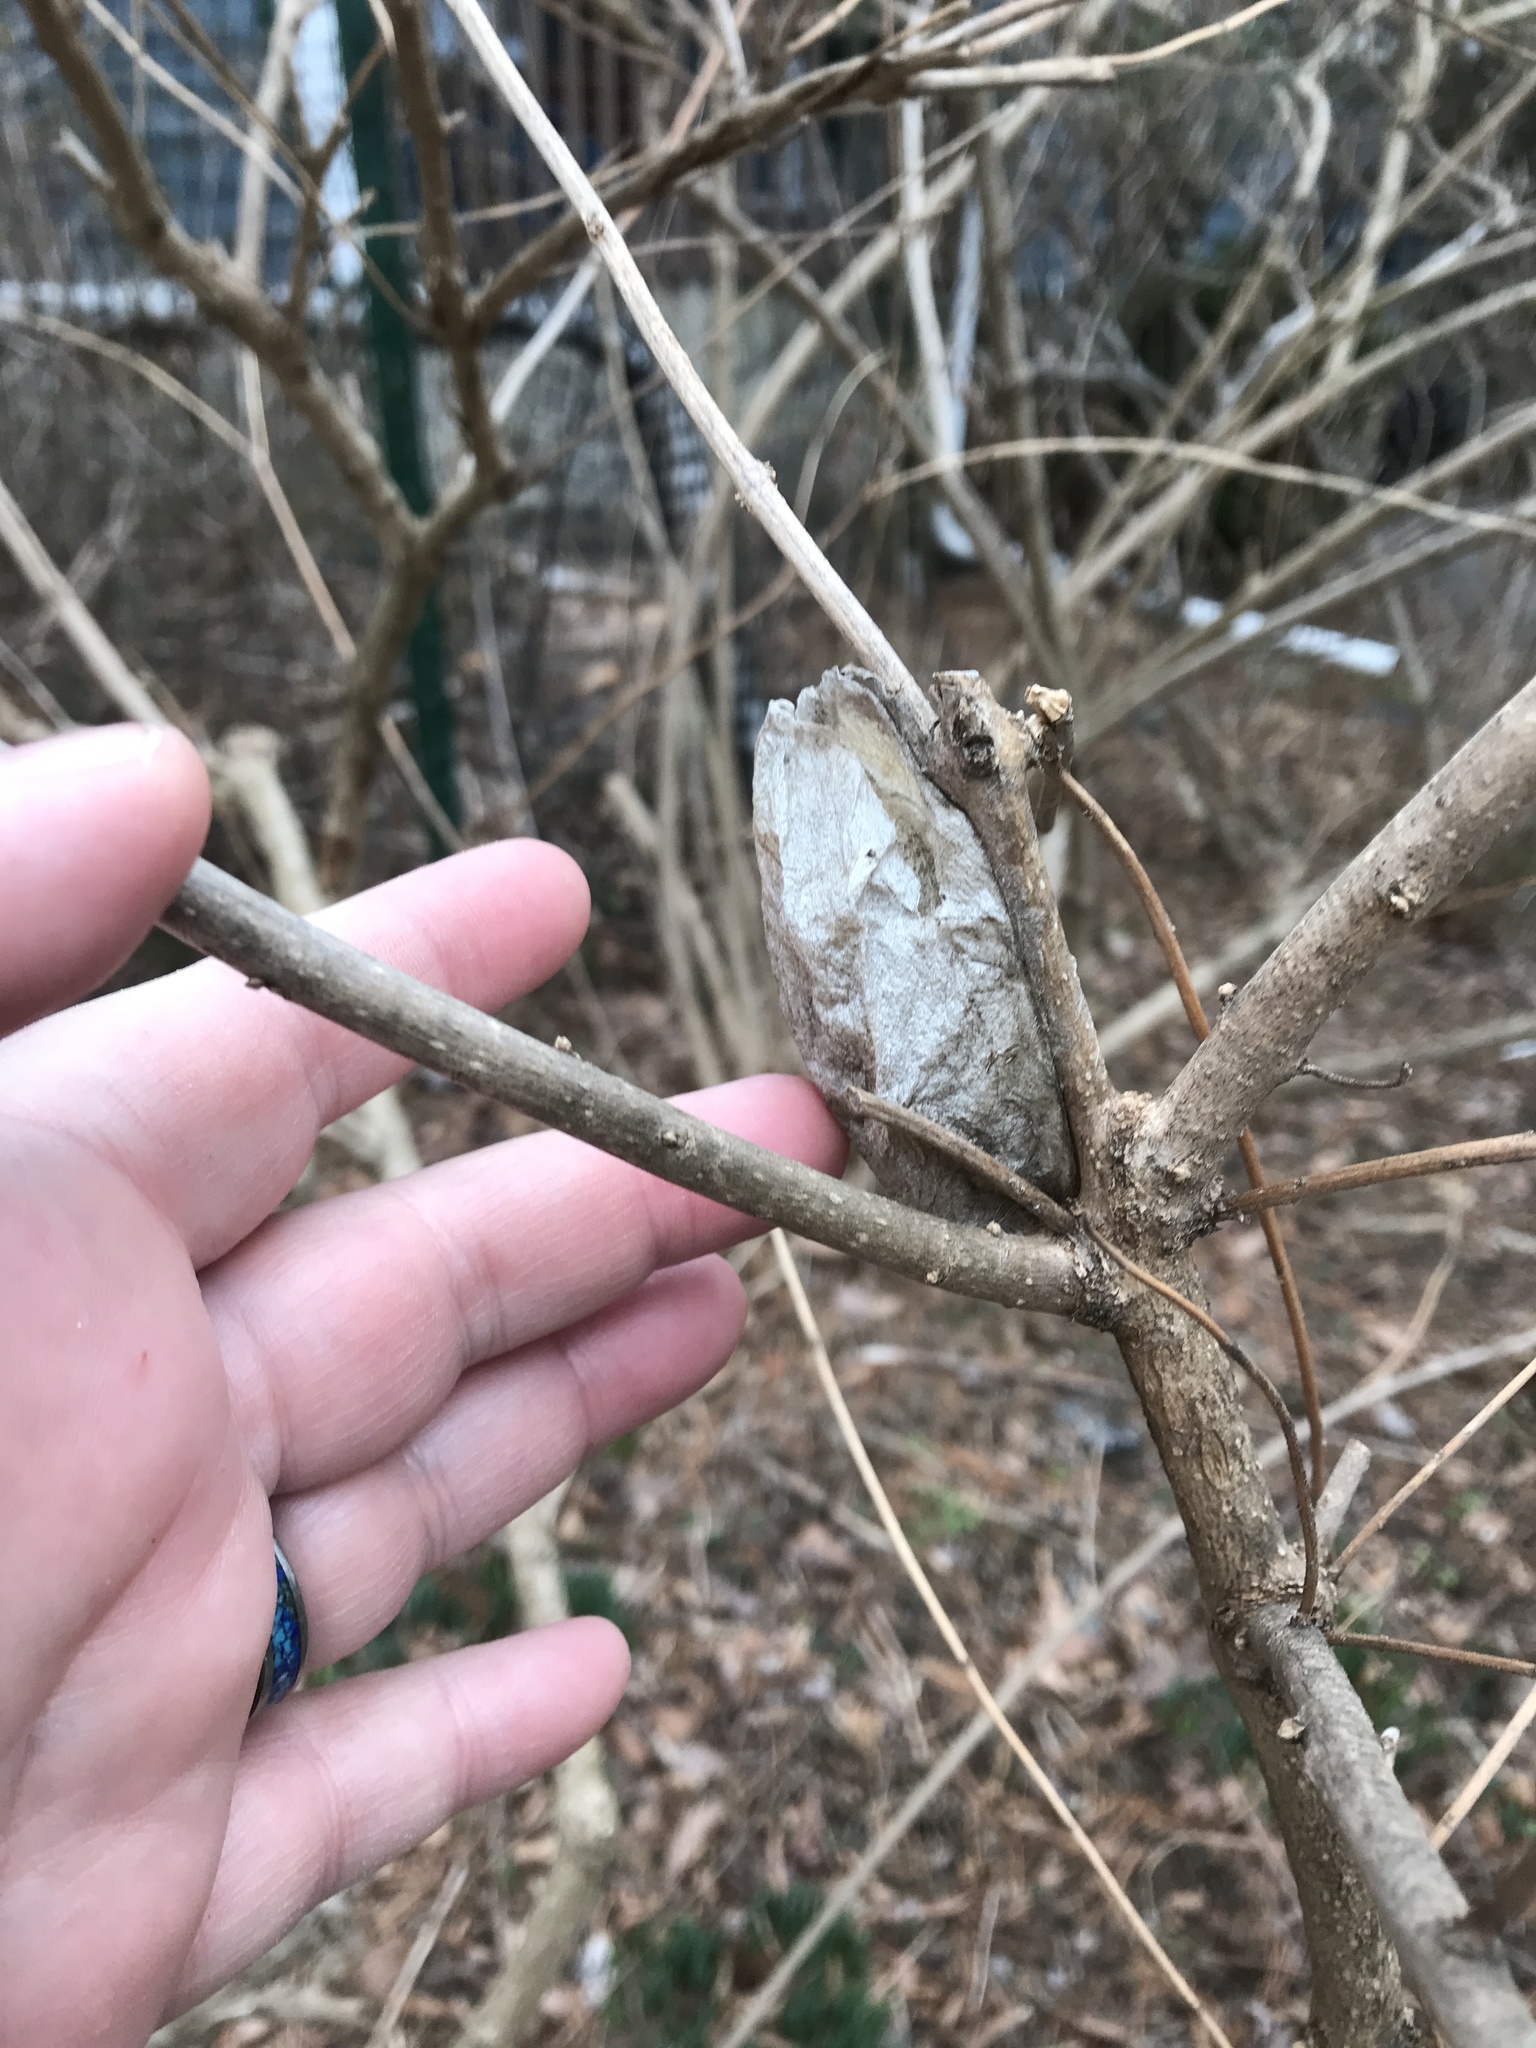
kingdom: Animalia
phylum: Arthropoda
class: Insecta
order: Lepidoptera
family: Saturniidae
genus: Hyalophora
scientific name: Hyalophora cecropia
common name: Cecropia silkmoth
